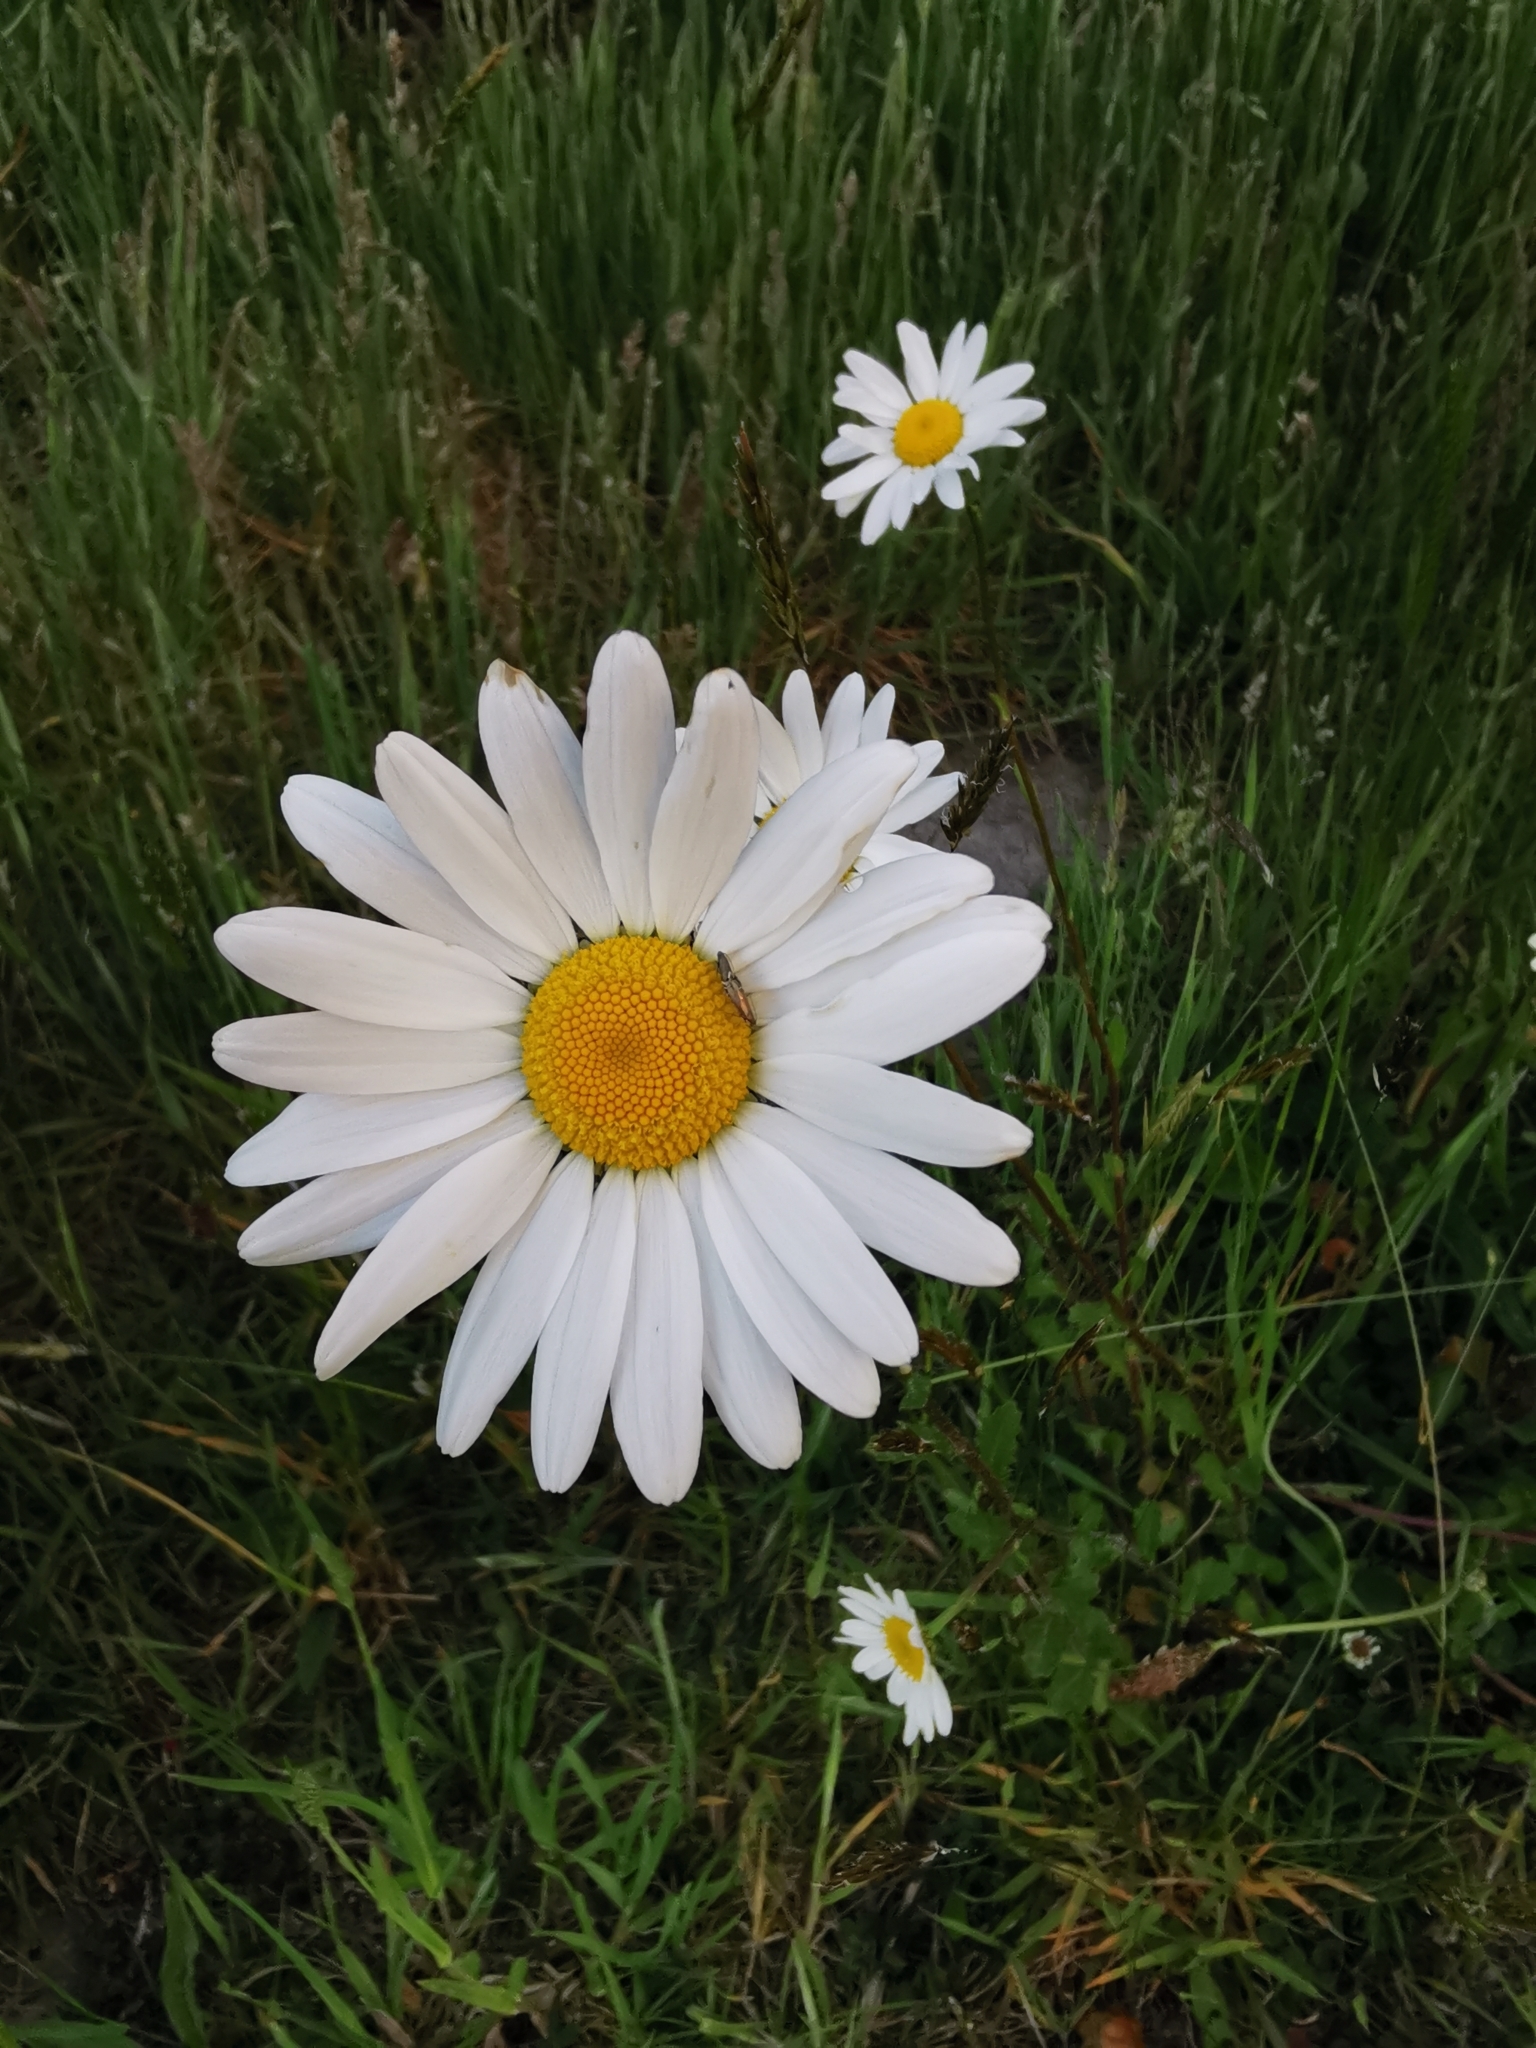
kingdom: Plantae
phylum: Tracheophyta
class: Magnoliopsida
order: Asterales
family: Asteraceae
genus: Leucanthemum
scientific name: Leucanthemum vulgare
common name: Oxeye daisy
